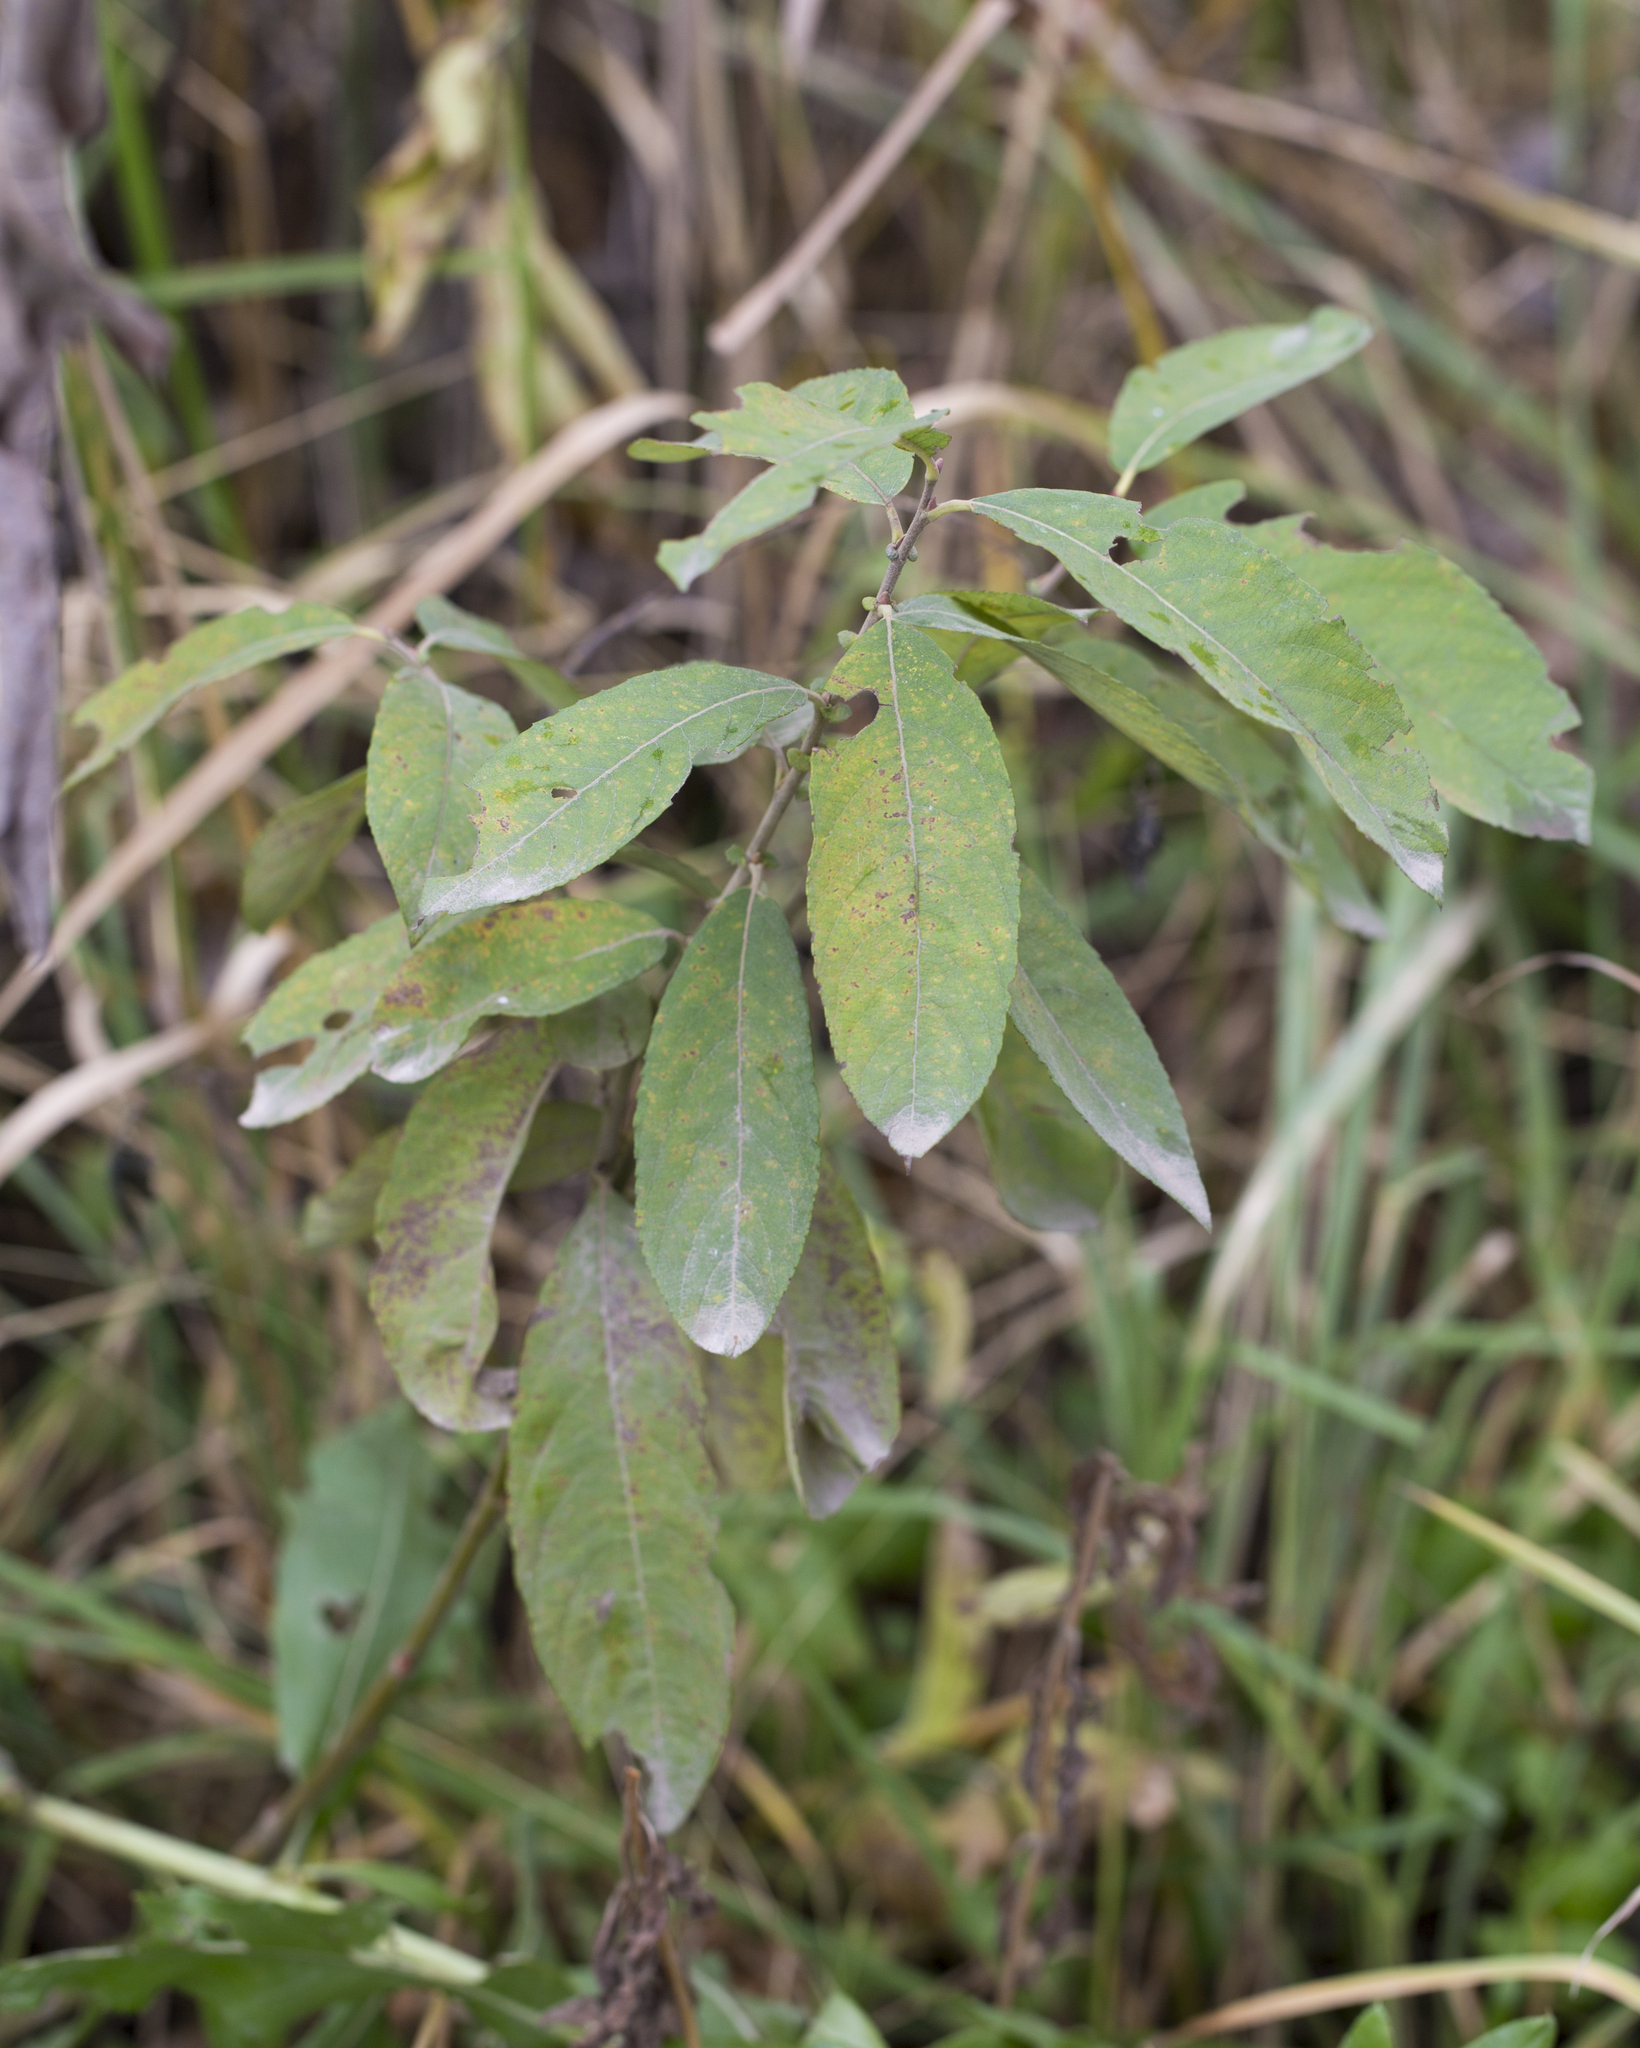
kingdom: Plantae
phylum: Tracheophyta
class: Magnoliopsida
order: Malpighiales
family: Salicaceae
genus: Salix
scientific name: Salix cinerea
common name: Common sallow
